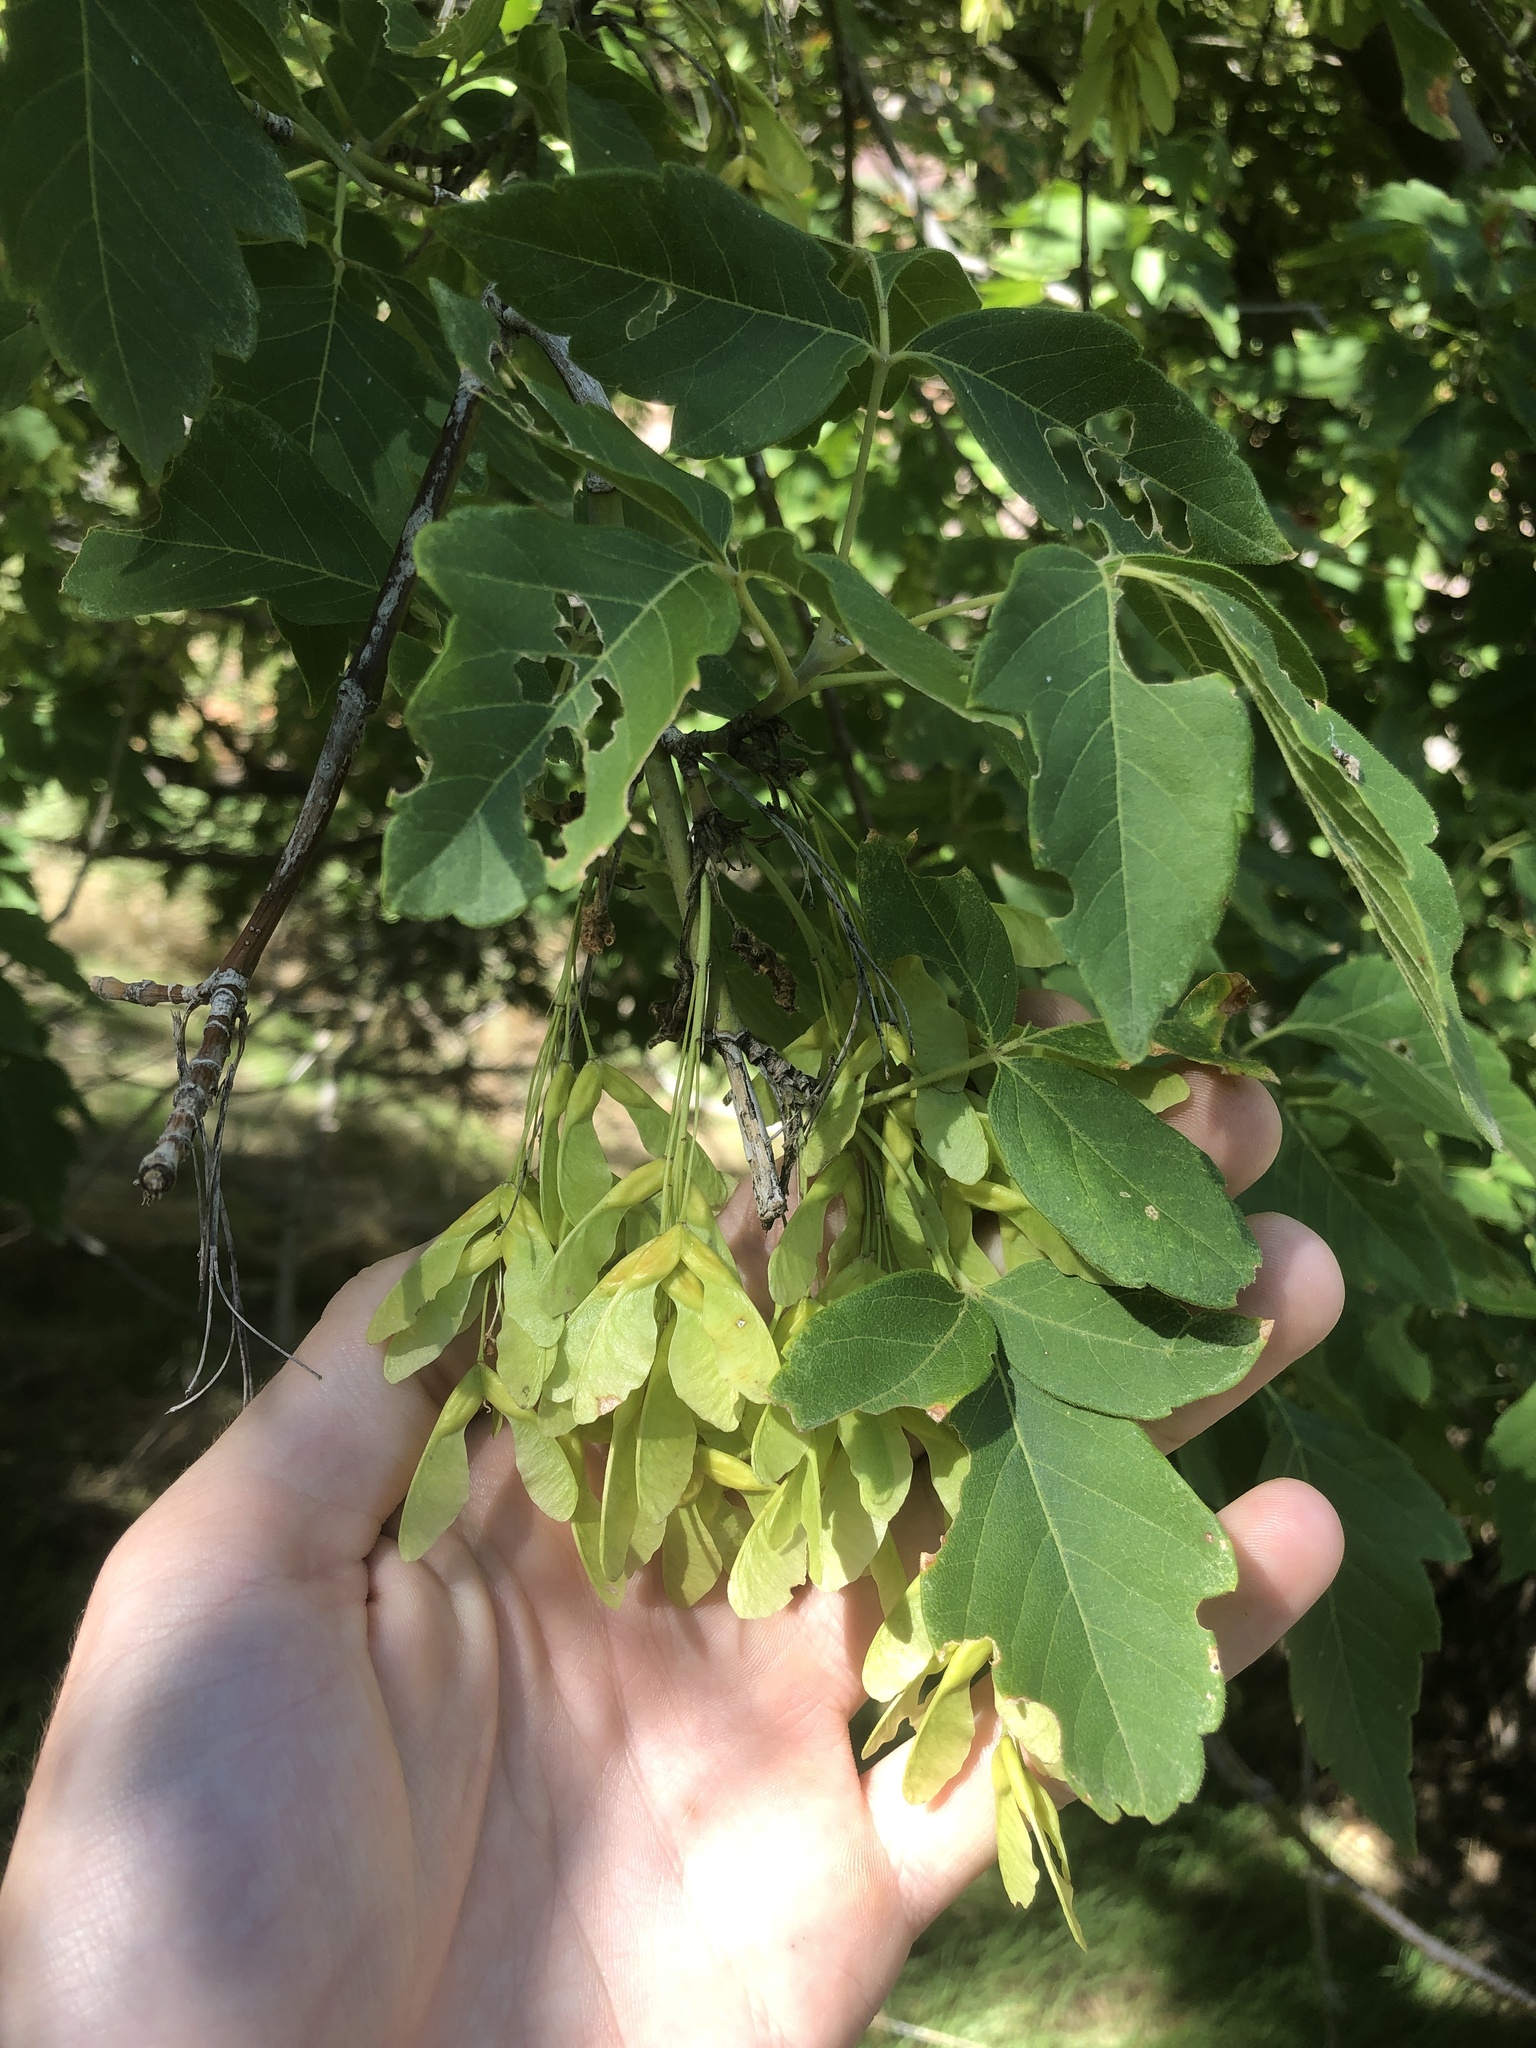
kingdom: Plantae
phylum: Tracheophyta
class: Magnoliopsida
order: Sapindales
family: Sapindaceae
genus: Acer
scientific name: Acer negundo
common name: Ashleaf maple
